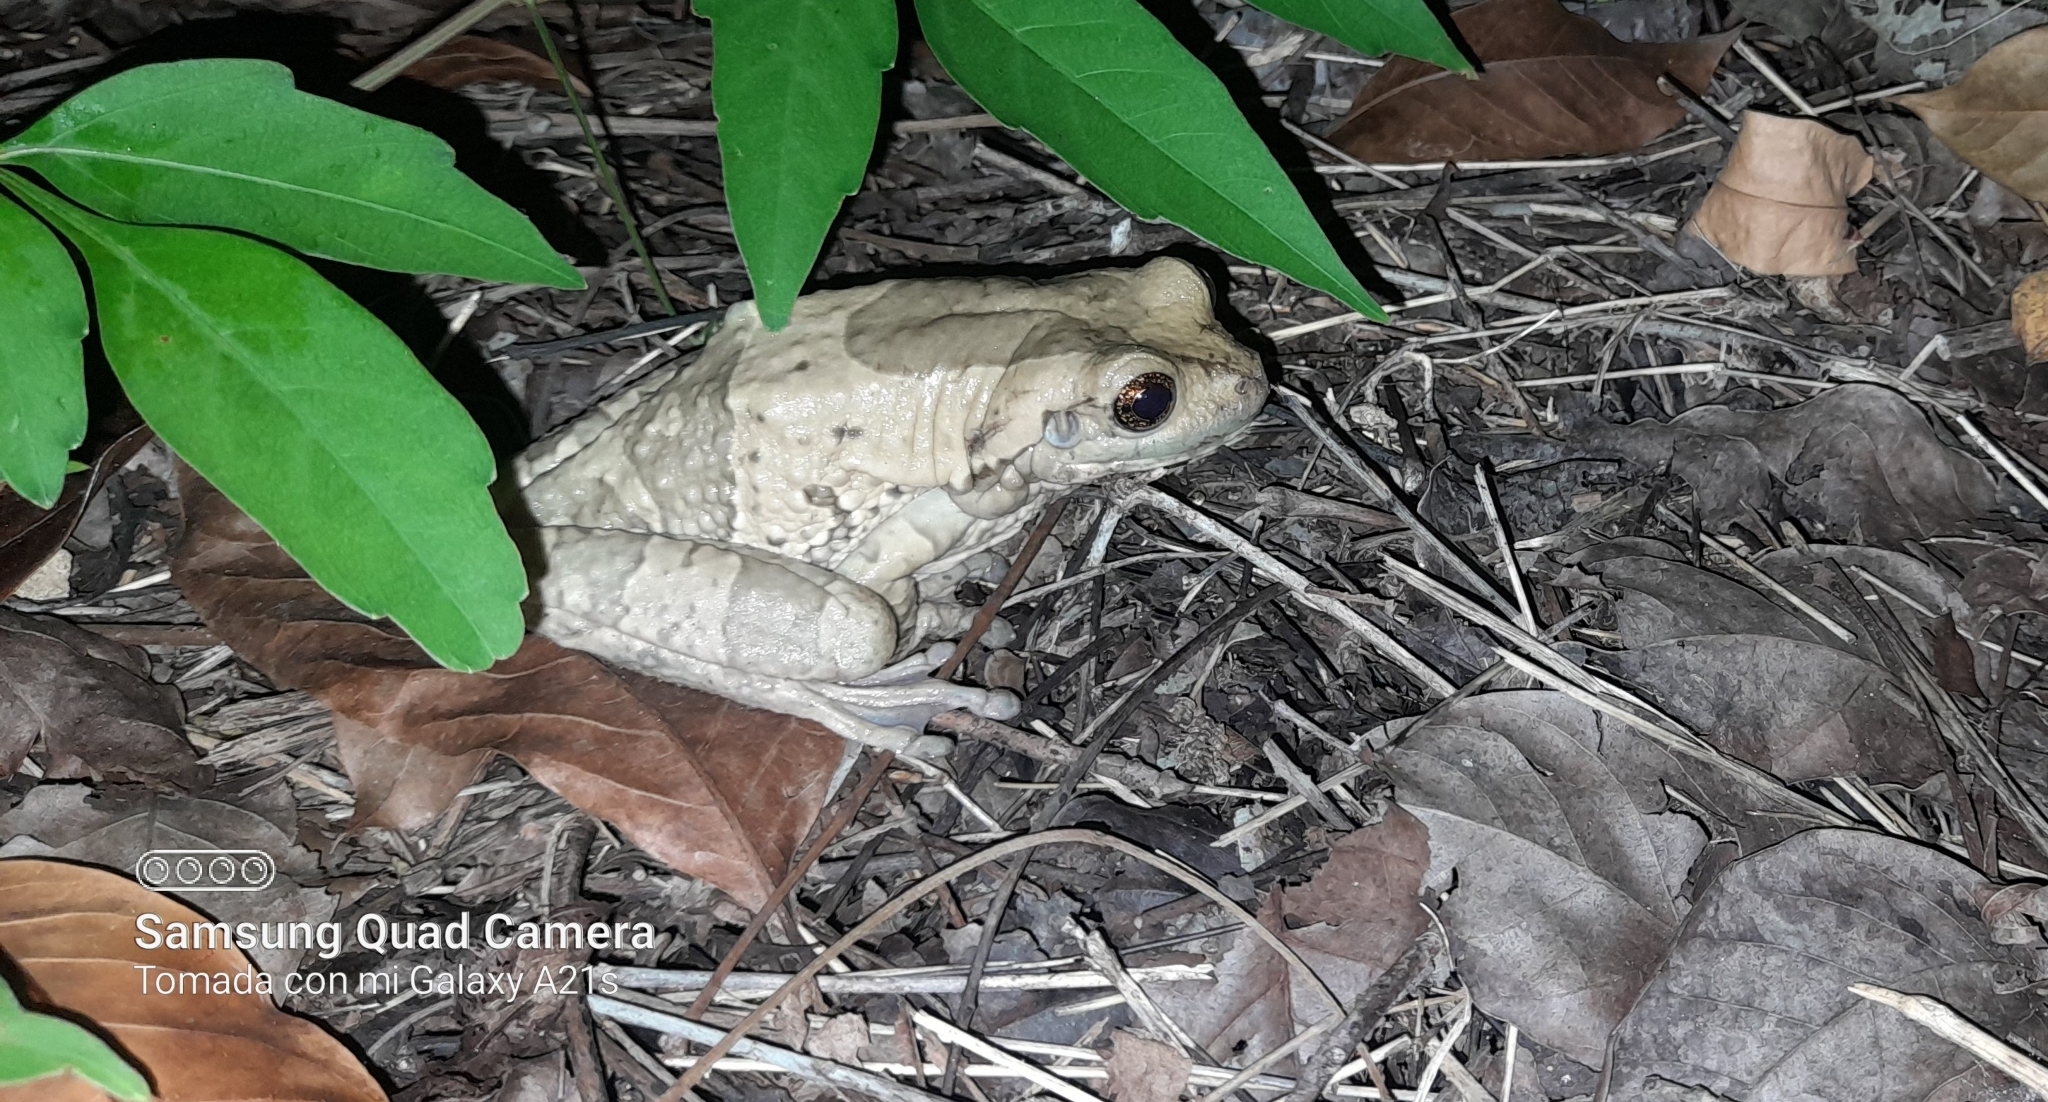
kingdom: Animalia
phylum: Chordata
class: Amphibia
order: Anura
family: Hylidae
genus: Trachycephalus
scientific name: Trachycephalus vermiculatus
